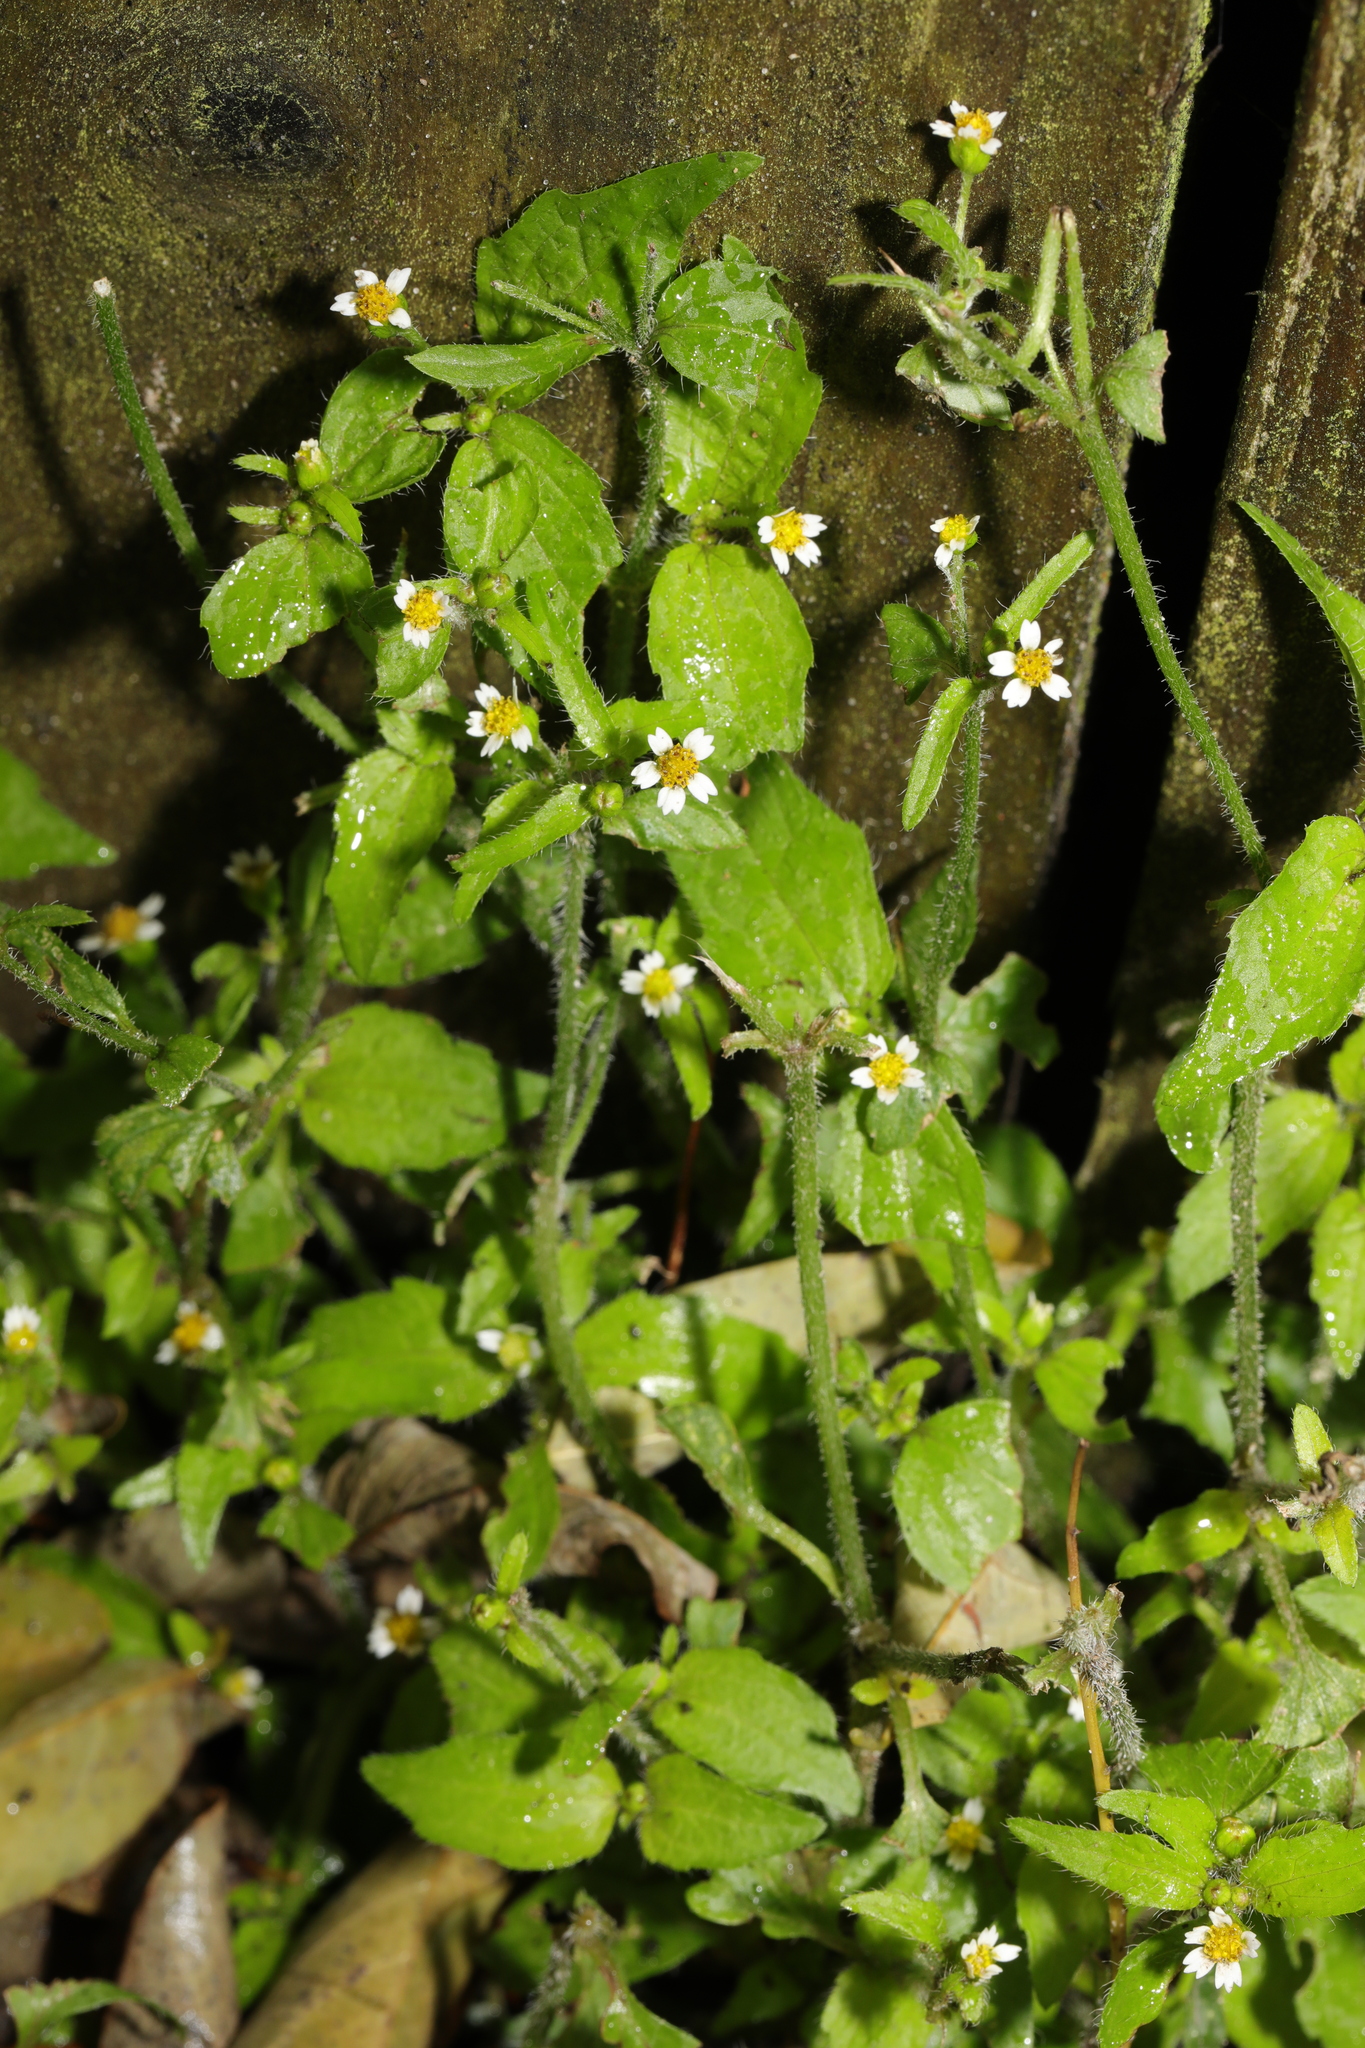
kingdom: Plantae
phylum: Tracheophyta
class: Magnoliopsida
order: Asterales
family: Asteraceae
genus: Galinsoga
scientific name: Galinsoga quadriradiata
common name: Shaggy soldier
